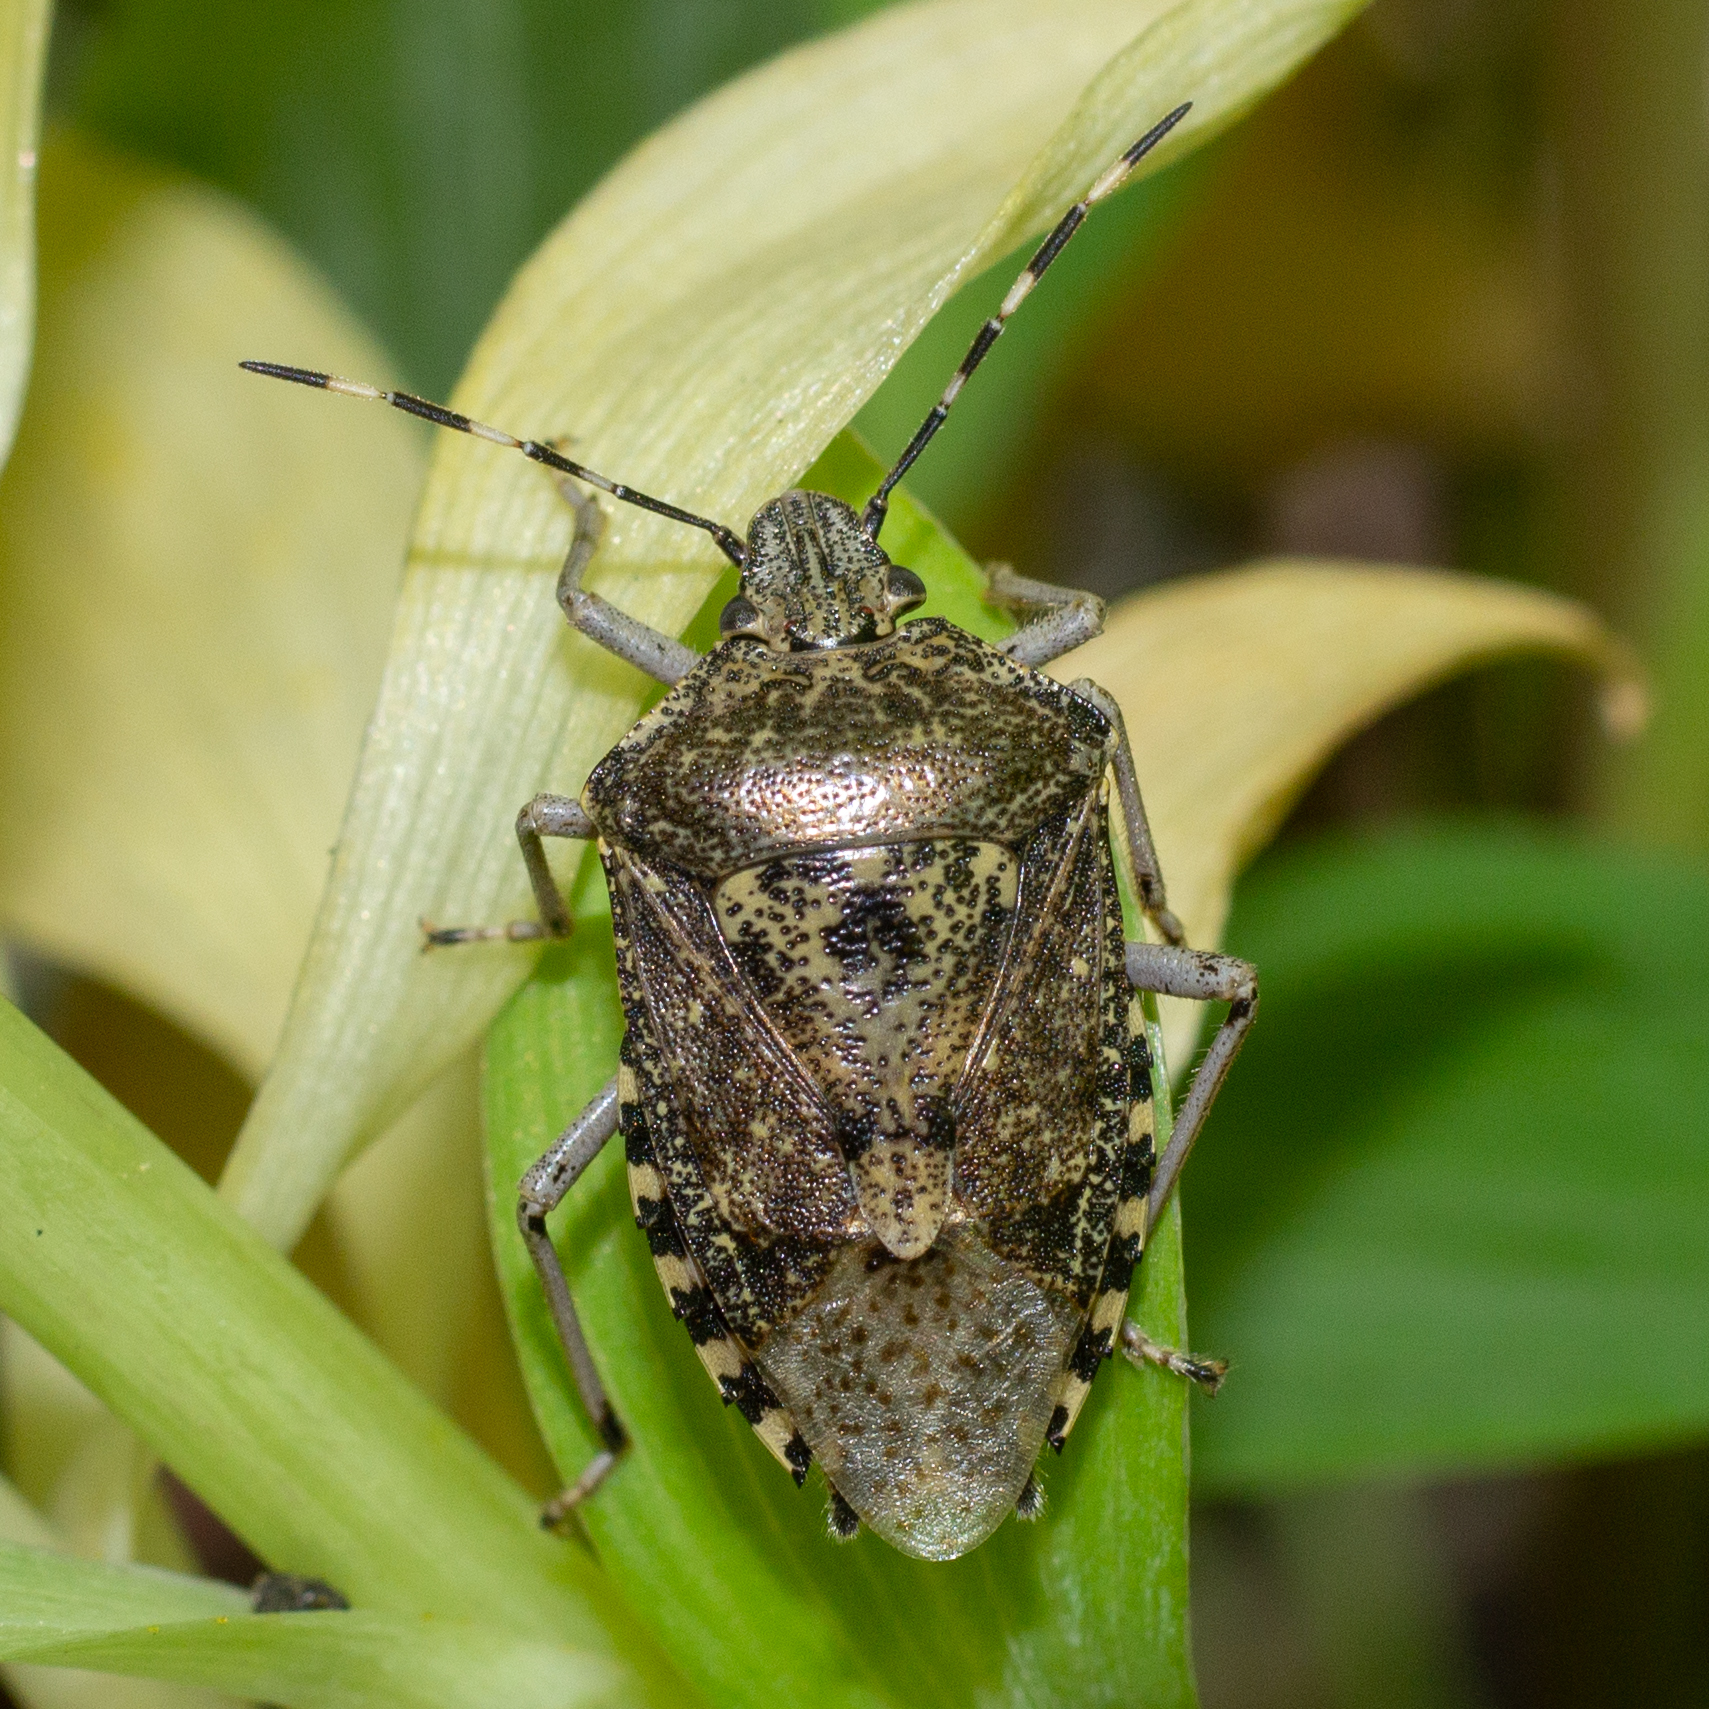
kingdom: Animalia
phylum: Arthropoda
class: Insecta
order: Hemiptera
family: Pentatomidae
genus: Rhaphigaster
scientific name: Rhaphigaster nebulosa
